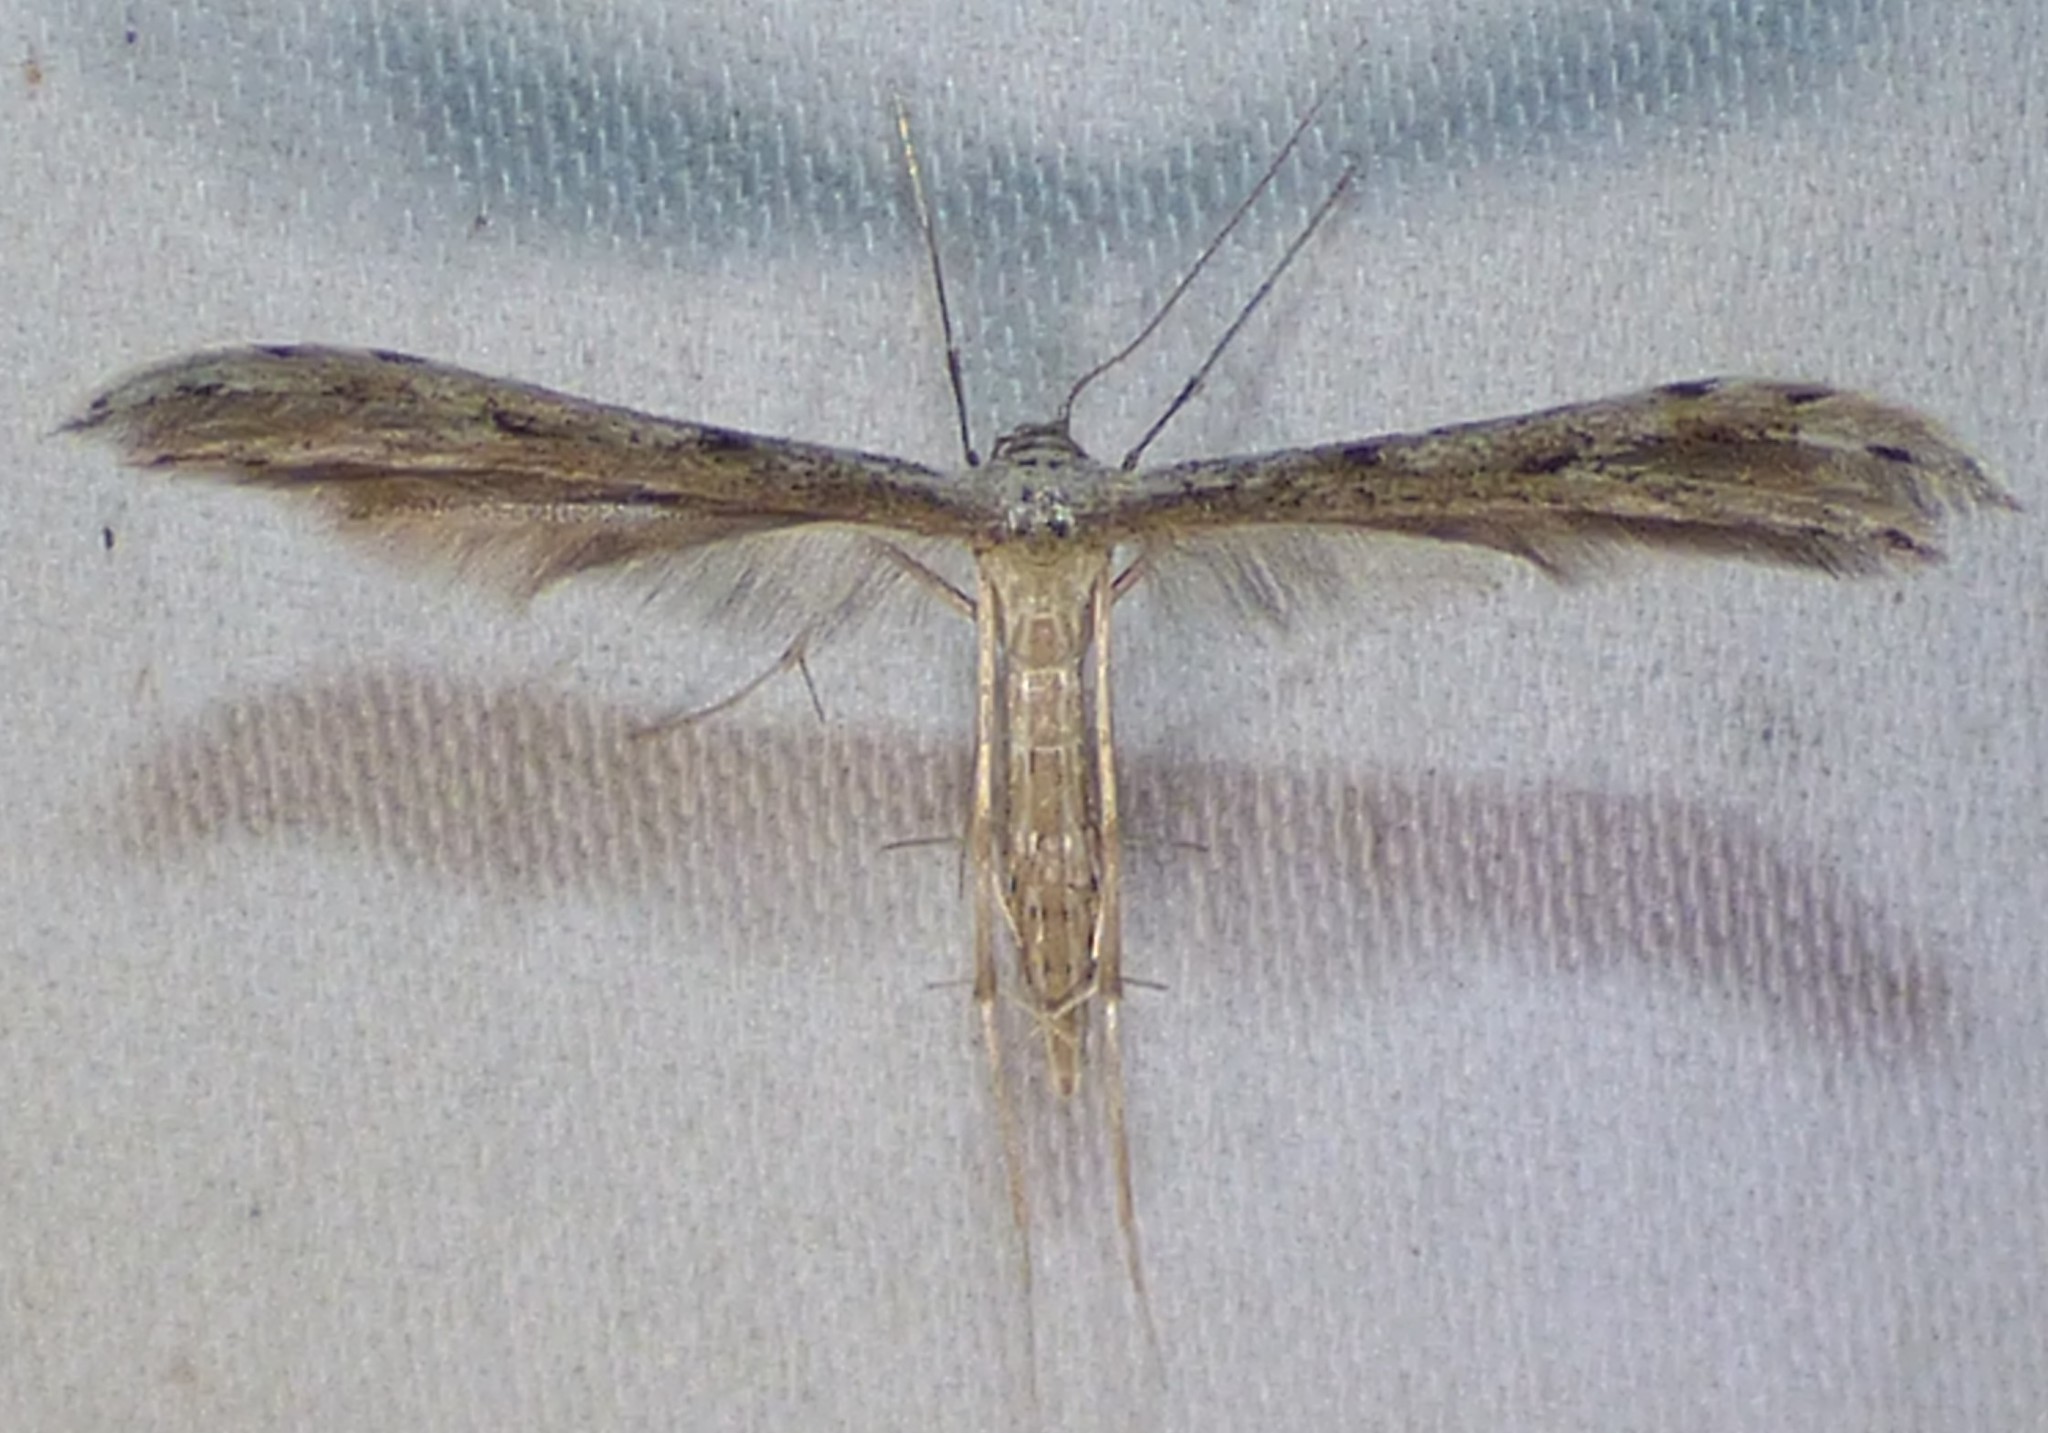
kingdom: Animalia
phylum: Arthropoda
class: Insecta
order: Lepidoptera
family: Pterophoridae
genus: Pselnophorus
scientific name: Pselnophorus belfragei
